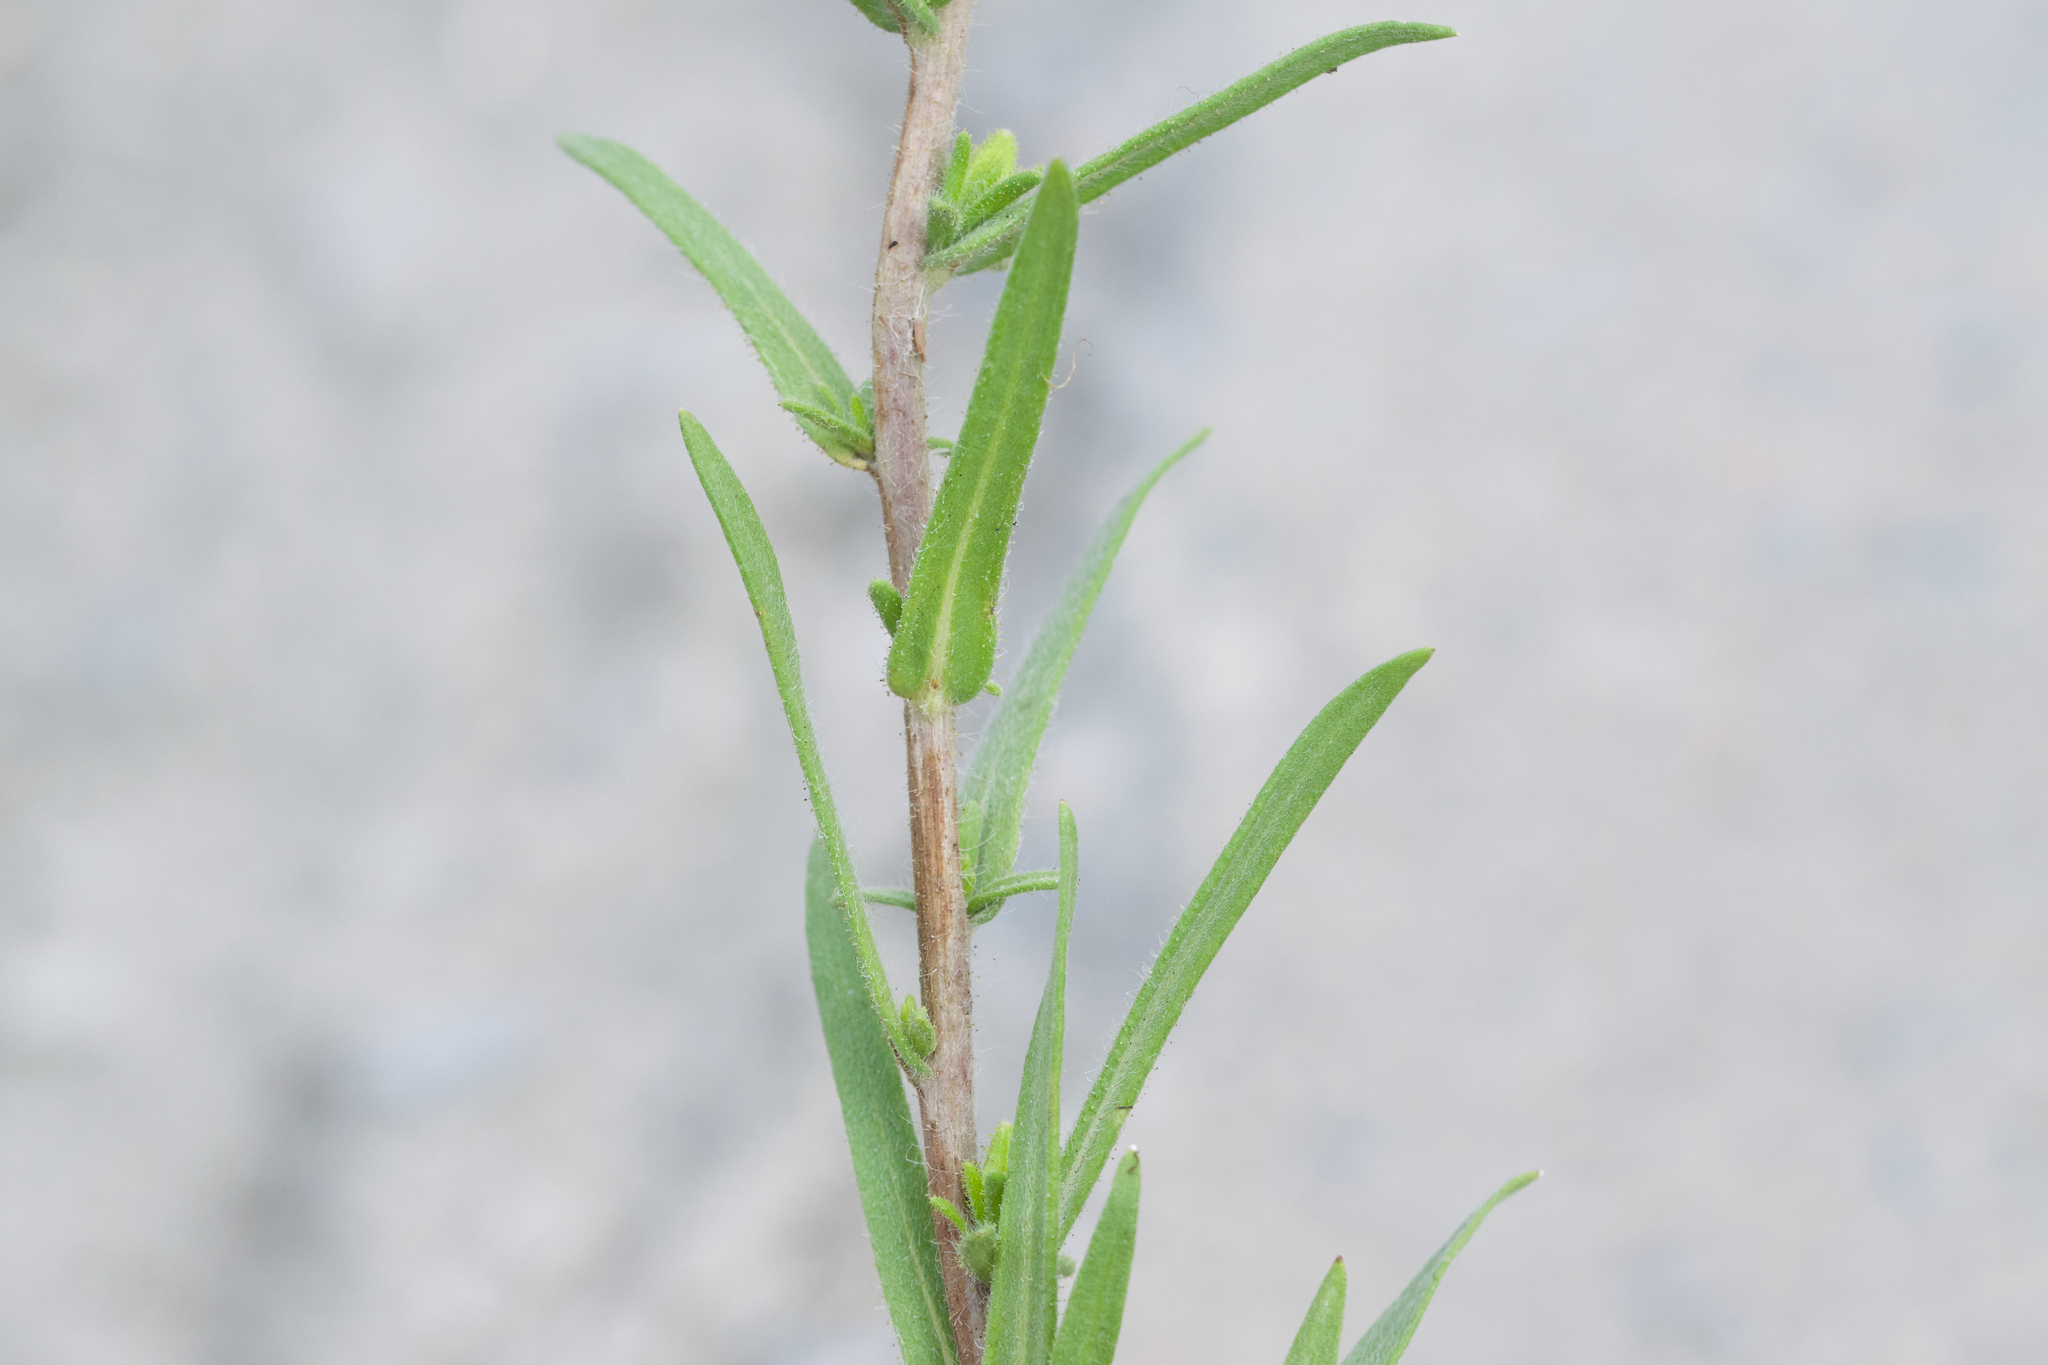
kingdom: Plantae
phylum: Tracheophyta
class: Magnoliopsida
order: Asterales
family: Asteraceae
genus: Madia
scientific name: Madia glomerata
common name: Mountain tarweed
